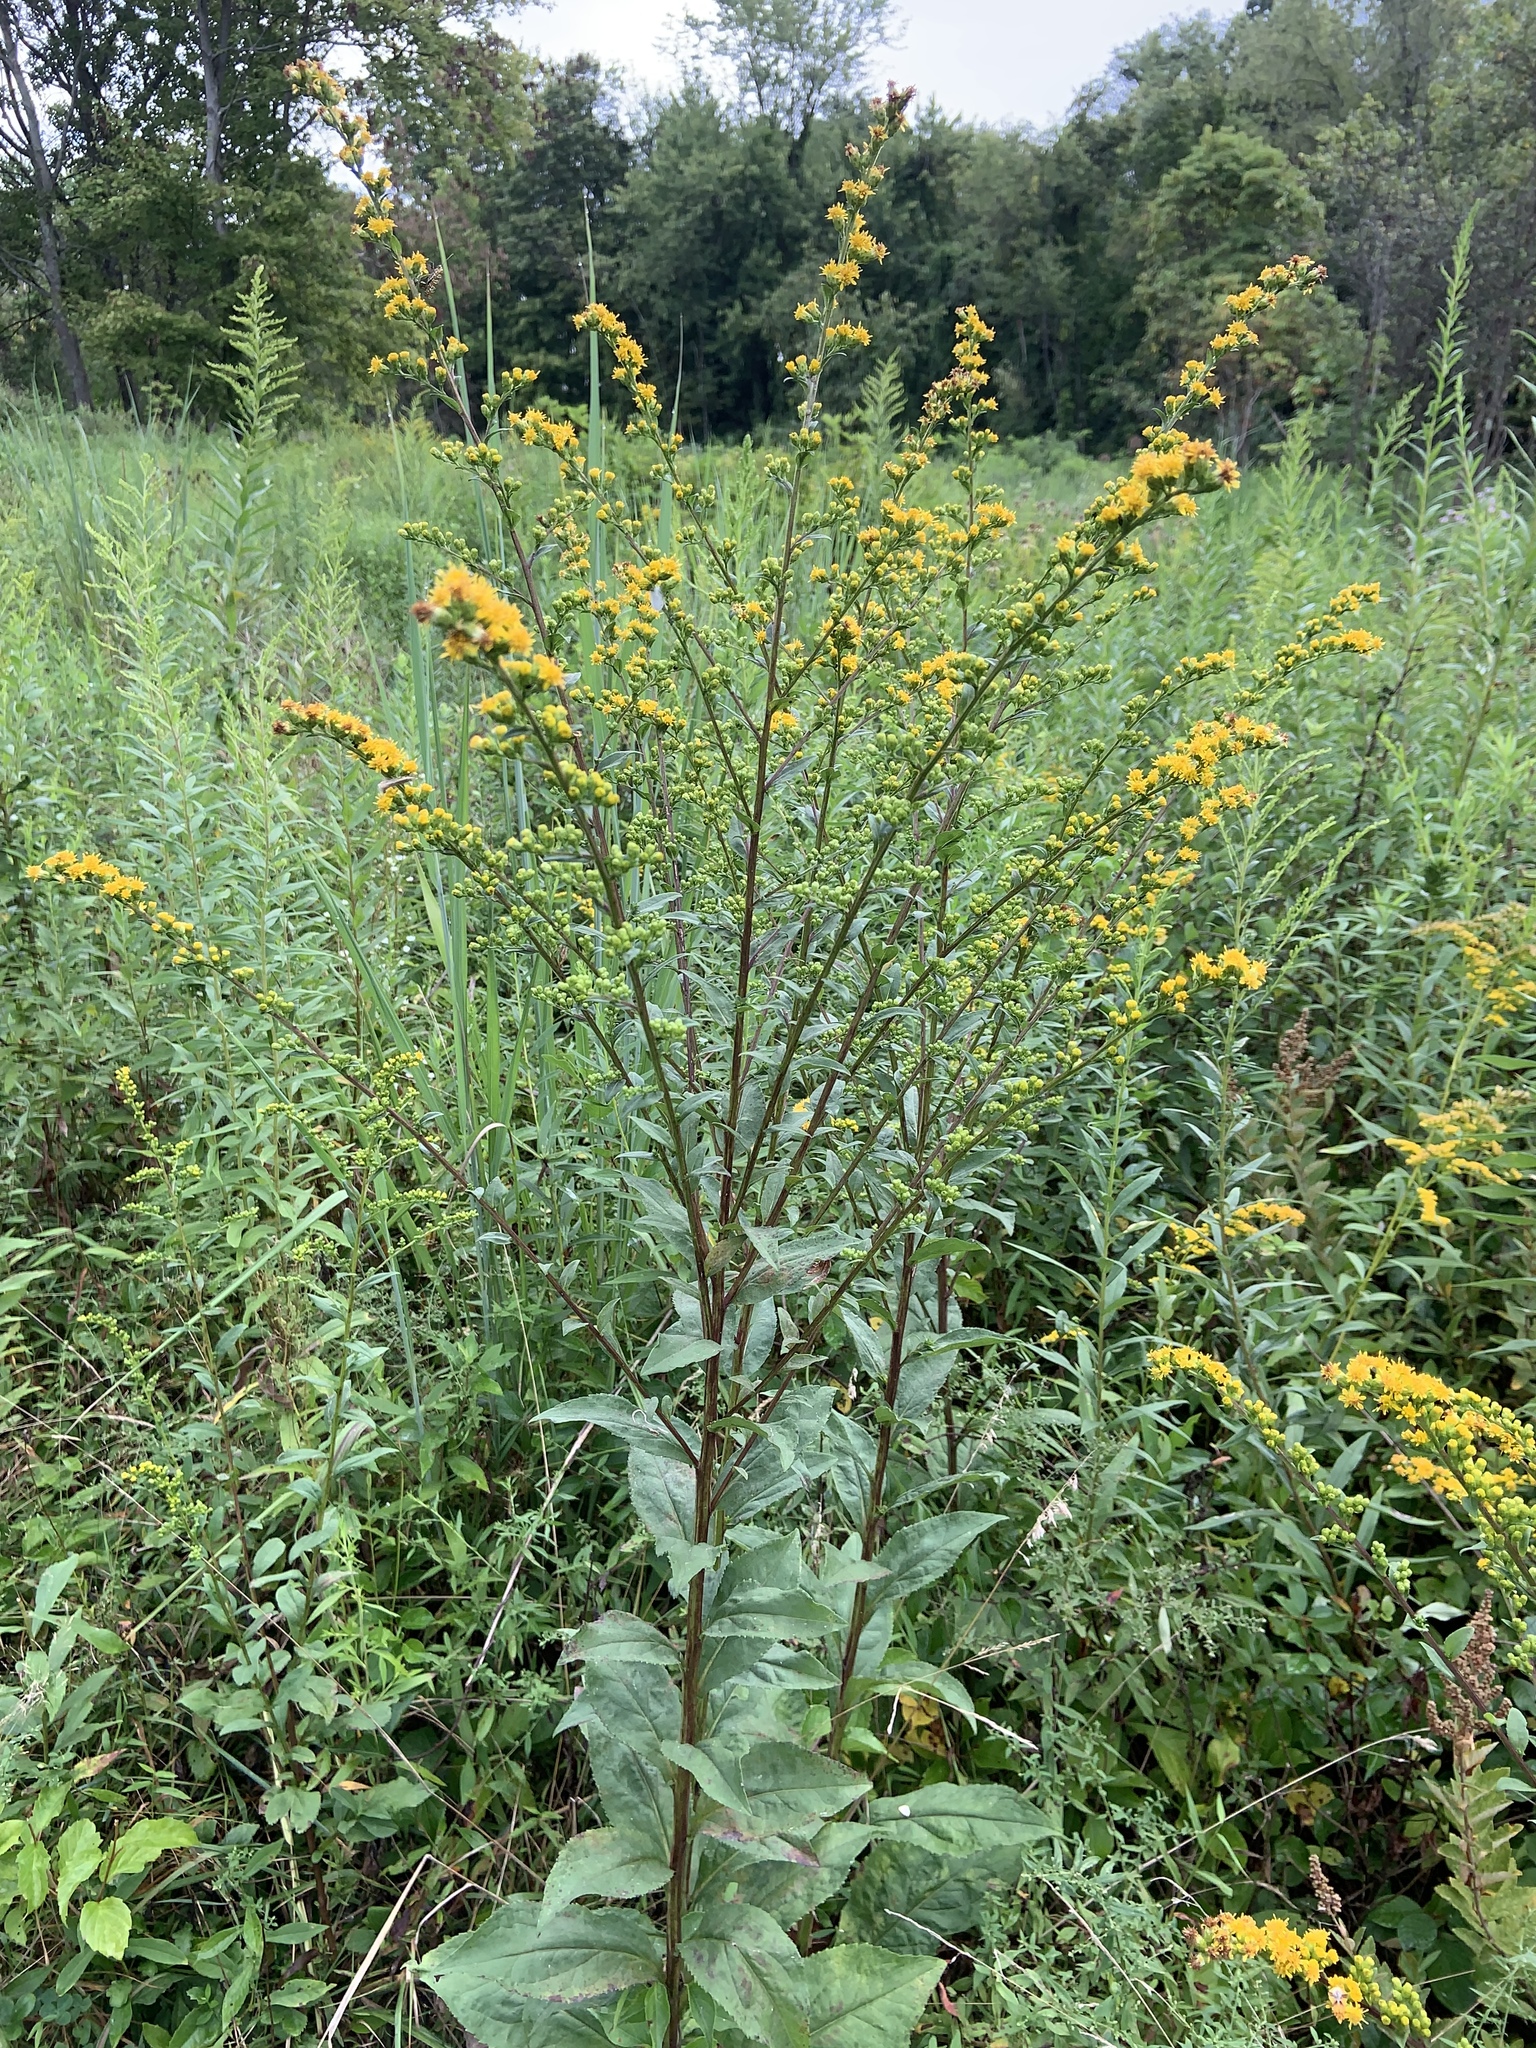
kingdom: Plantae
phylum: Tracheophyta
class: Magnoliopsida
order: Asterales
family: Asteraceae
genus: Solidago
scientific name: Solidago patula
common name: Rough-leaf goldenrod
